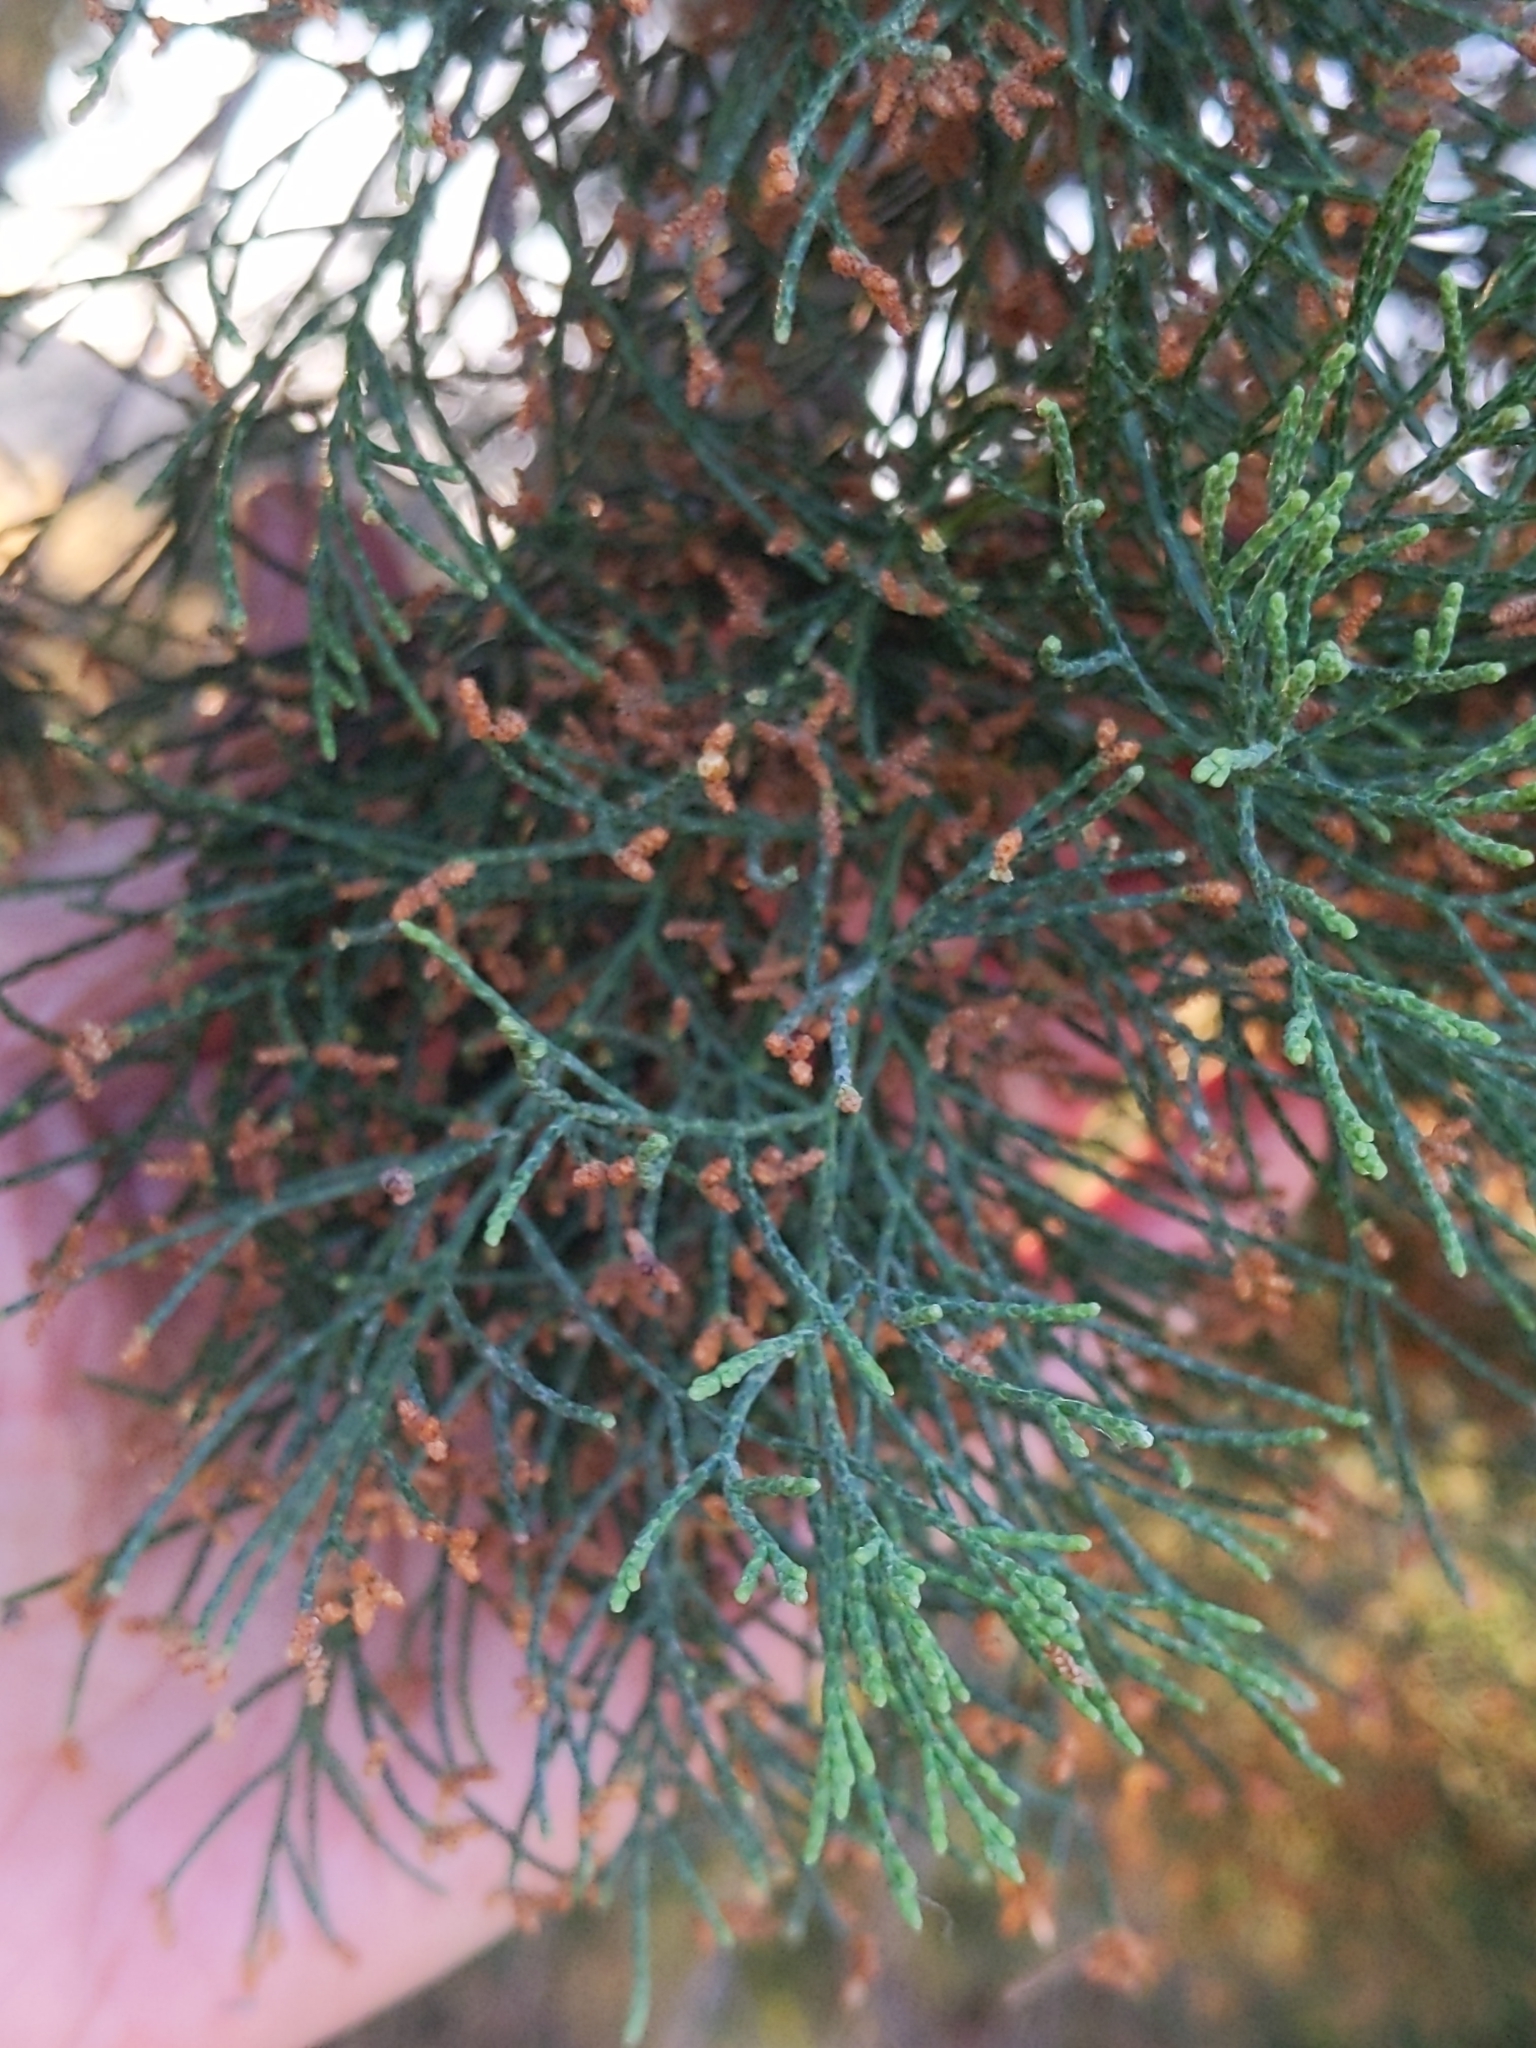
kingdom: Plantae
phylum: Tracheophyta
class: Pinopsida
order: Pinales
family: Cupressaceae
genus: Callitris
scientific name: Callitris columellaris
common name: White cypress-pine
